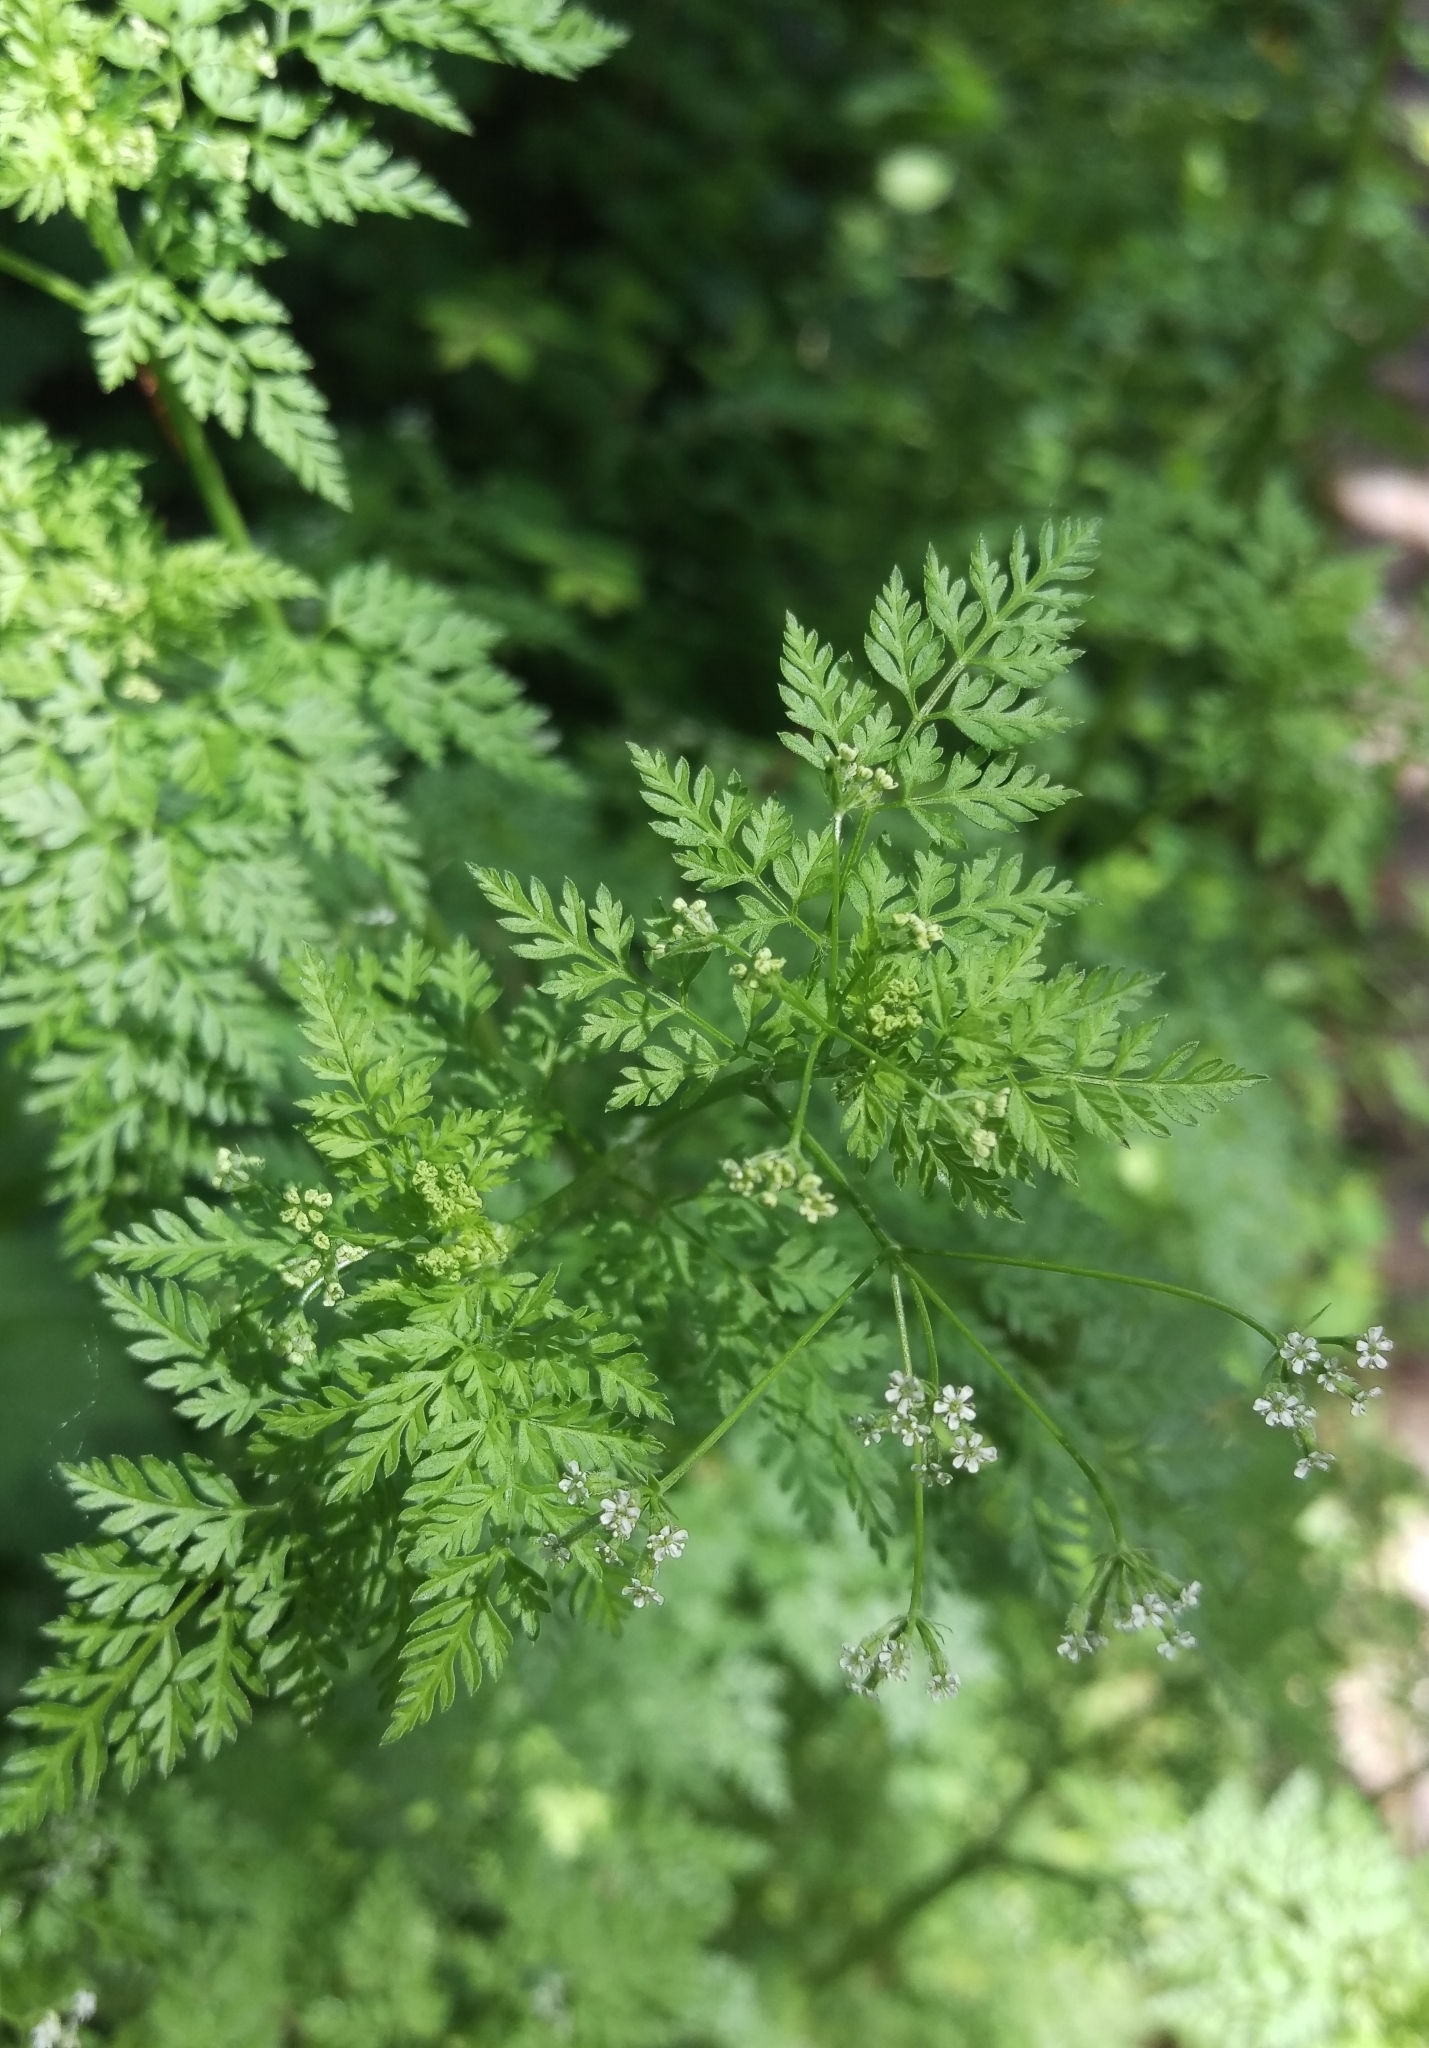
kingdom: Plantae
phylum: Tracheophyta
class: Magnoliopsida
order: Apiales
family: Apiaceae
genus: Anthriscus
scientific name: Anthriscus caucalis
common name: Bur chervil
